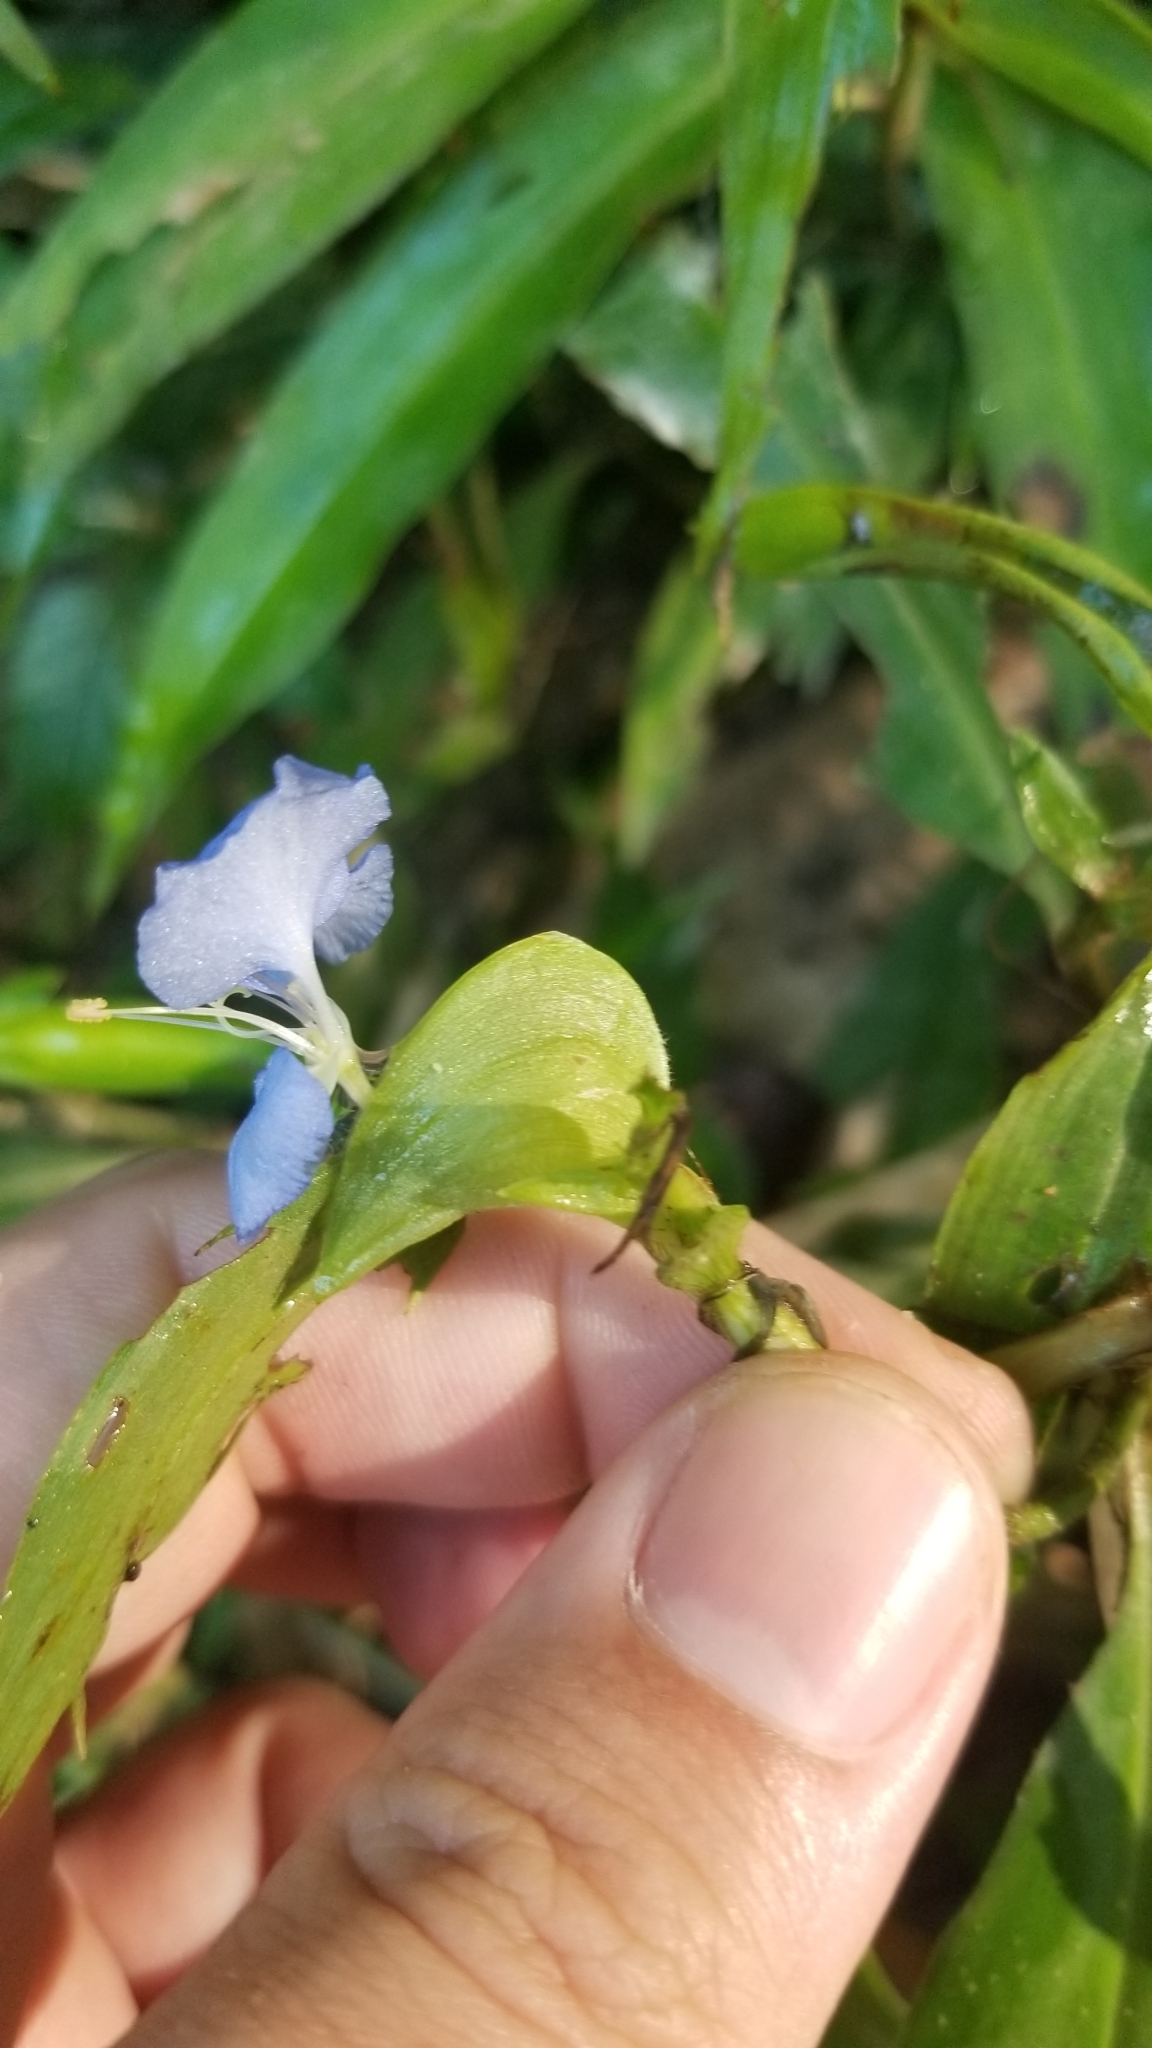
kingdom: Plantae
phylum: Tracheophyta
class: Liliopsida
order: Commelinales
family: Commelinaceae
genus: Commelina
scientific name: Commelina virginica
